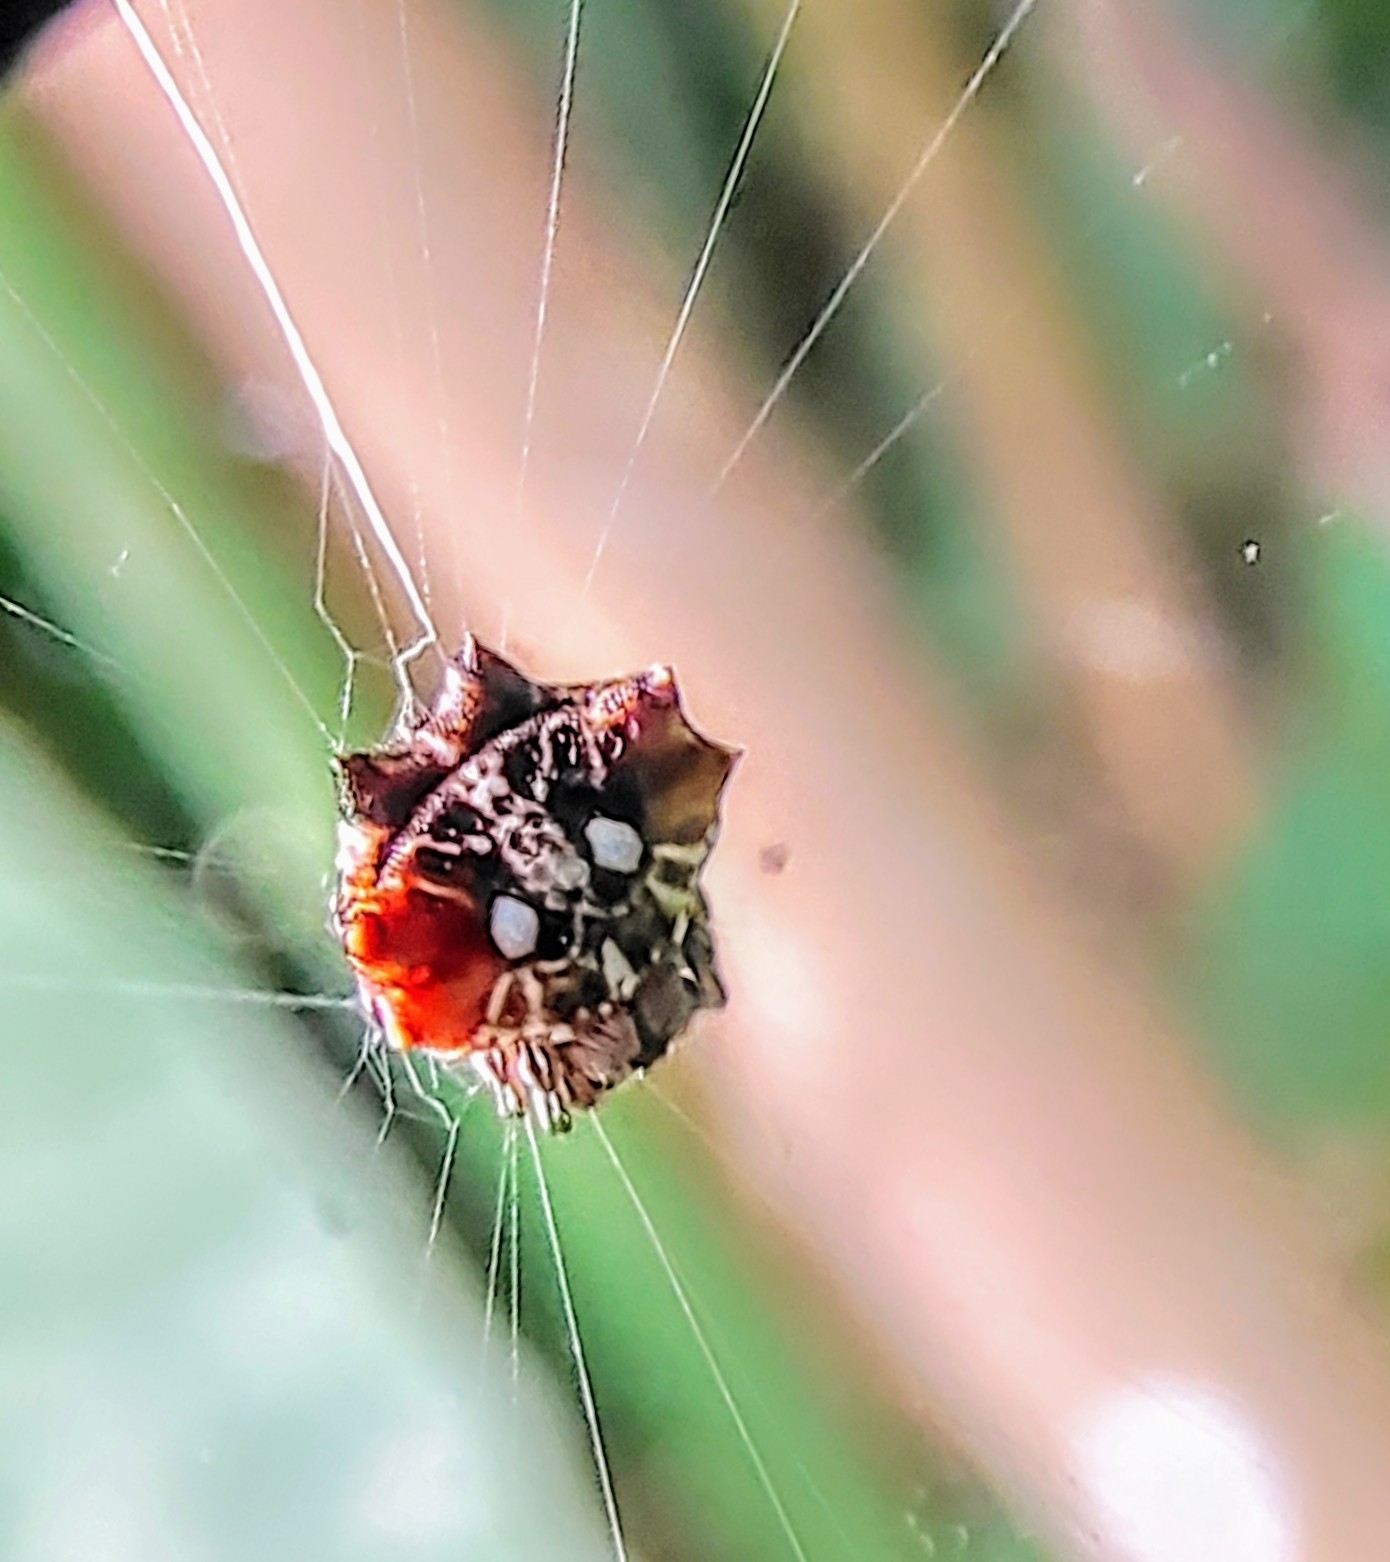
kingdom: Animalia
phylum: Arthropoda
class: Arachnida
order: Araneae
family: Araneidae
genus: Thelacantha
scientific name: Thelacantha brevispina
